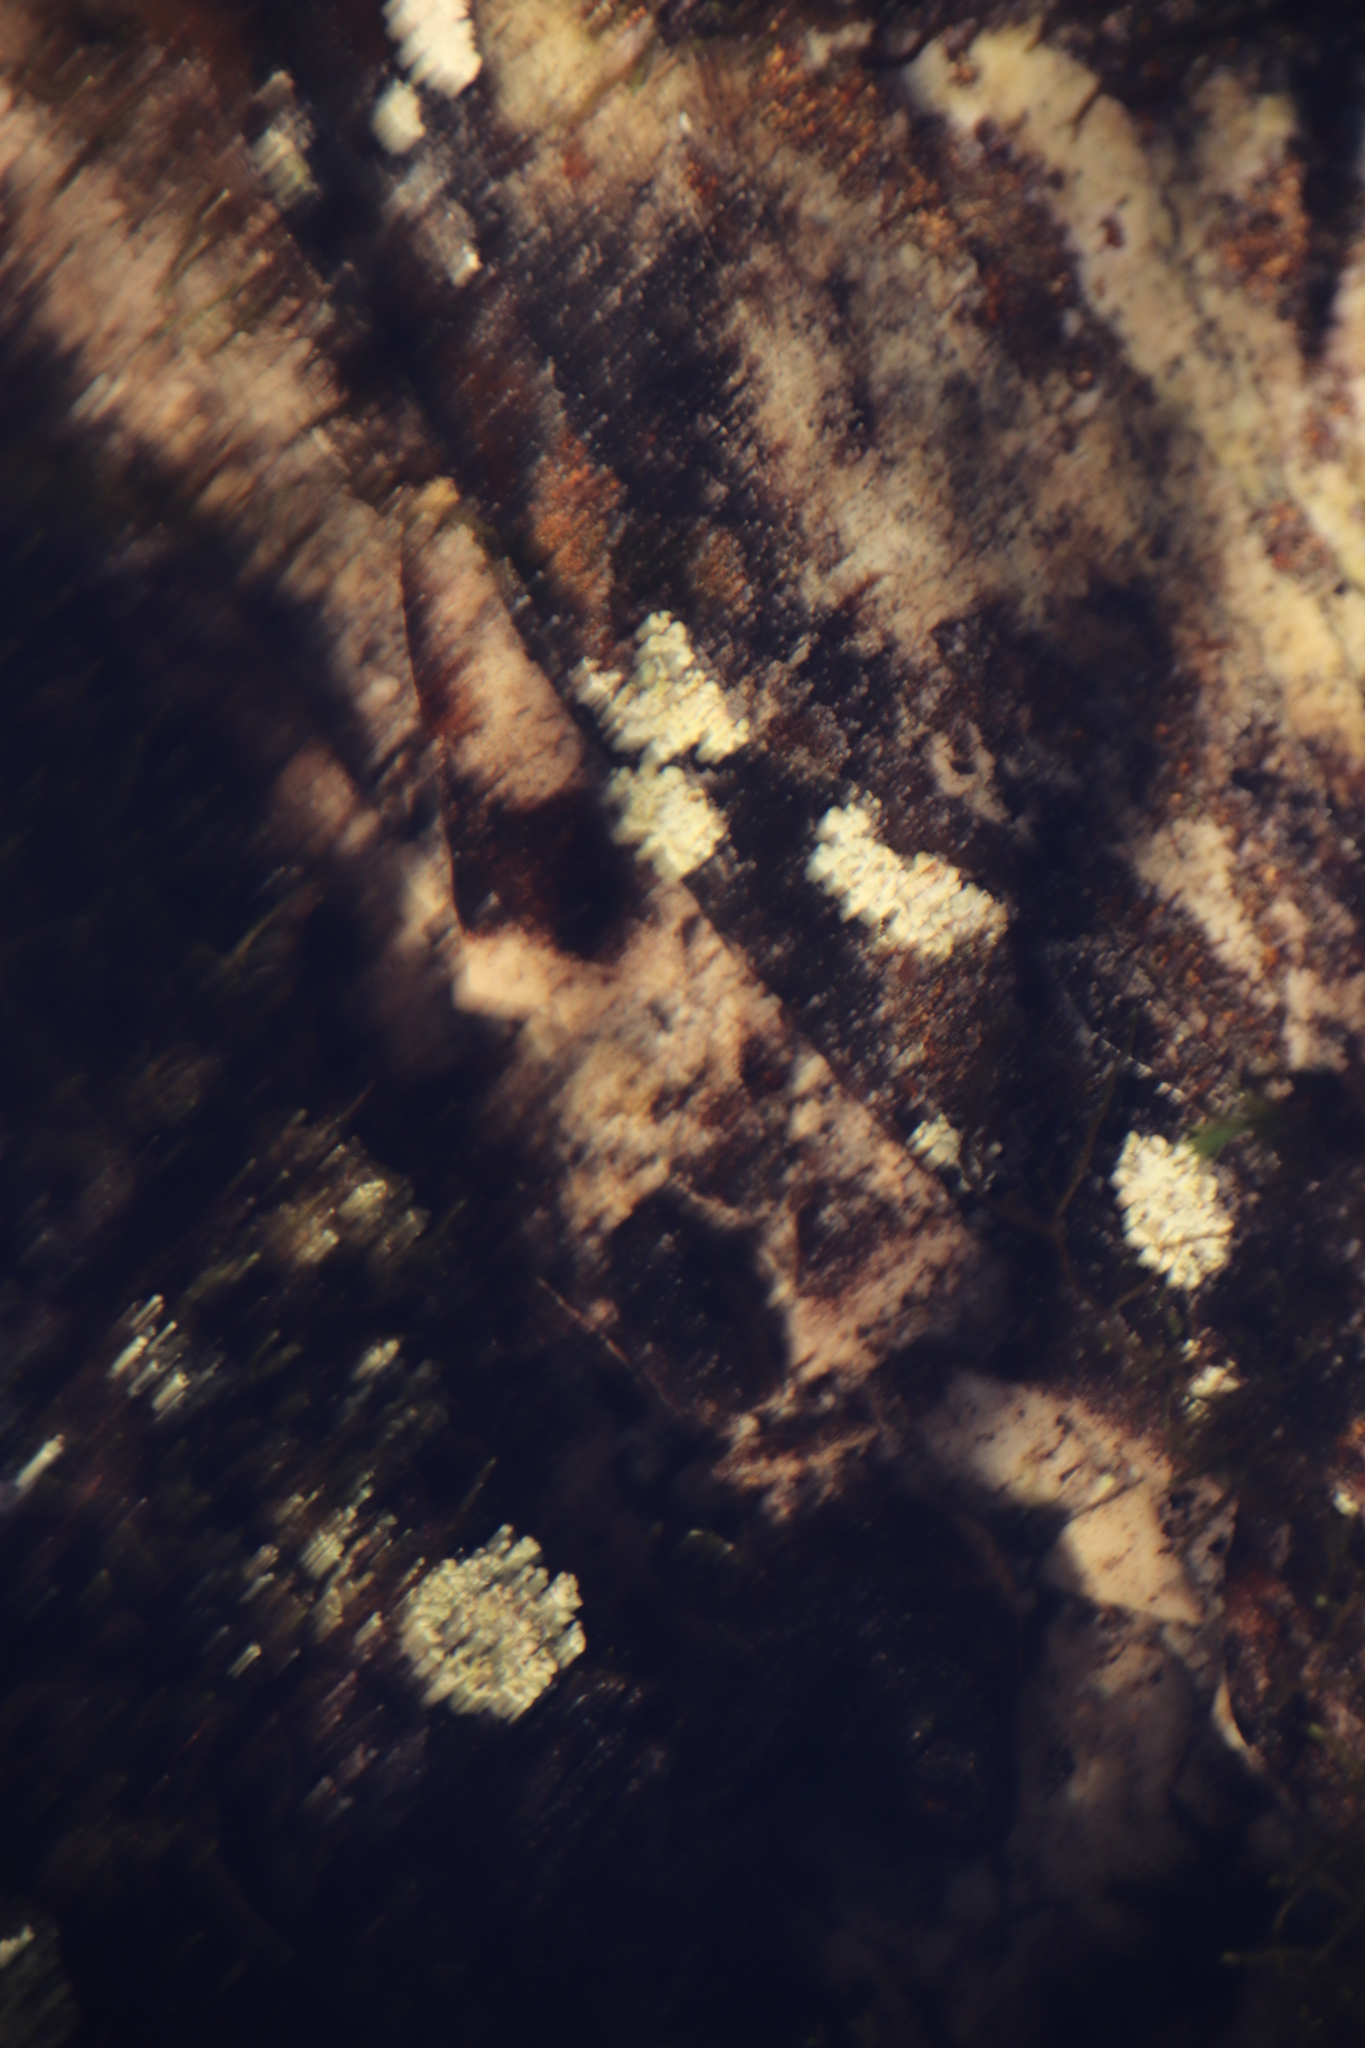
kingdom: Fungi
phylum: Ascomycota
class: Lecanoromycetes
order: Pertusariales
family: Icmadophilaceae
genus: Siphula
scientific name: Siphula verrucigera
